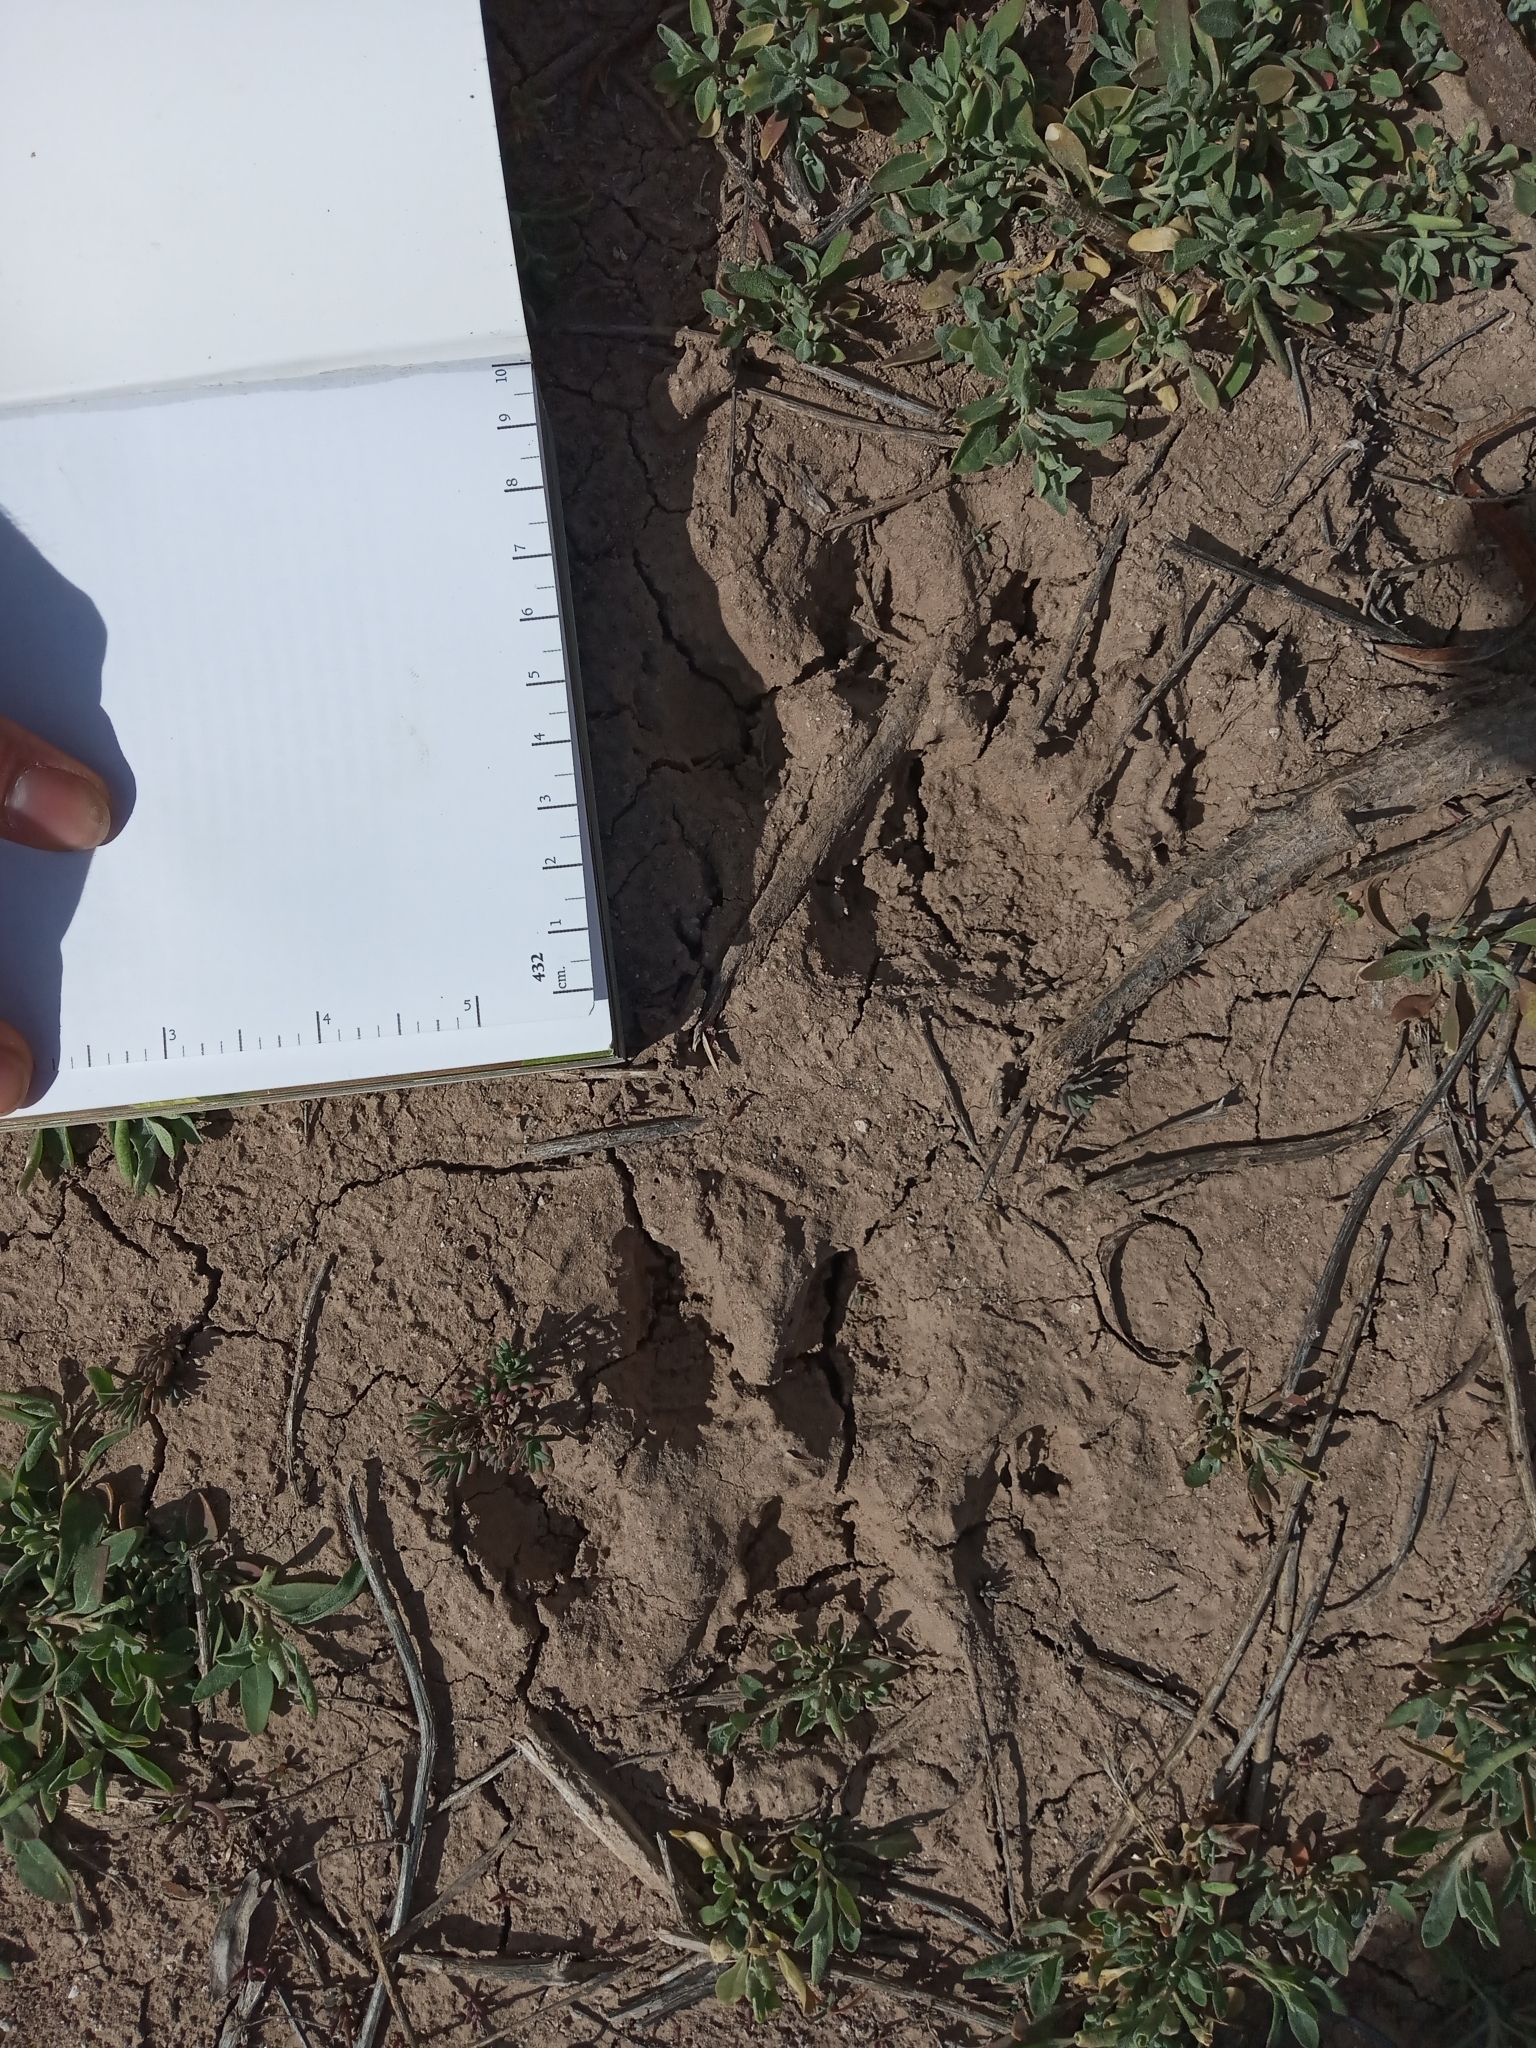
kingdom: Animalia
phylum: Chordata
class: Mammalia
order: Carnivora
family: Felidae
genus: Puma
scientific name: Puma concolor
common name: Puma
